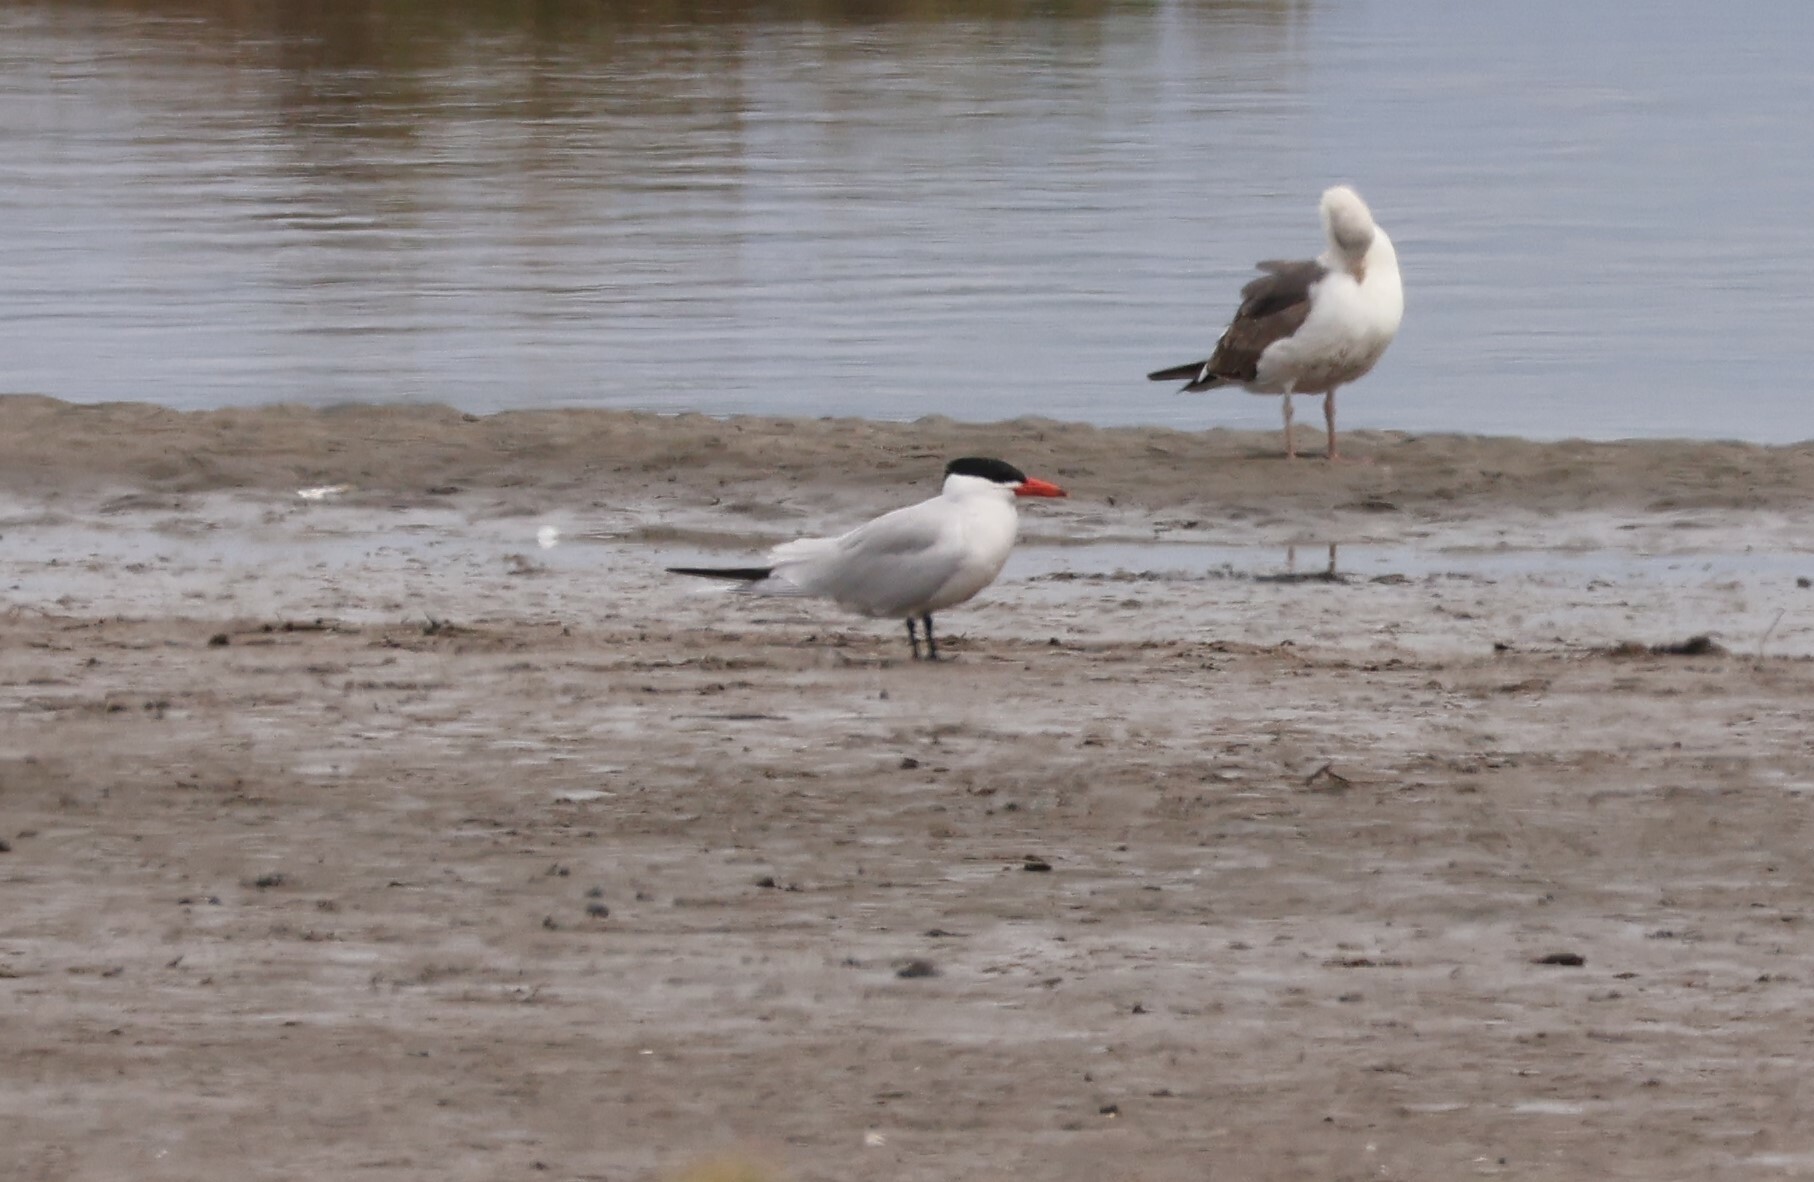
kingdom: Animalia
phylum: Chordata
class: Aves
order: Charadriiformes
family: Laridae
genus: Hydroprogne
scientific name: Hydroprogne caspia
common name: Caspian tern
